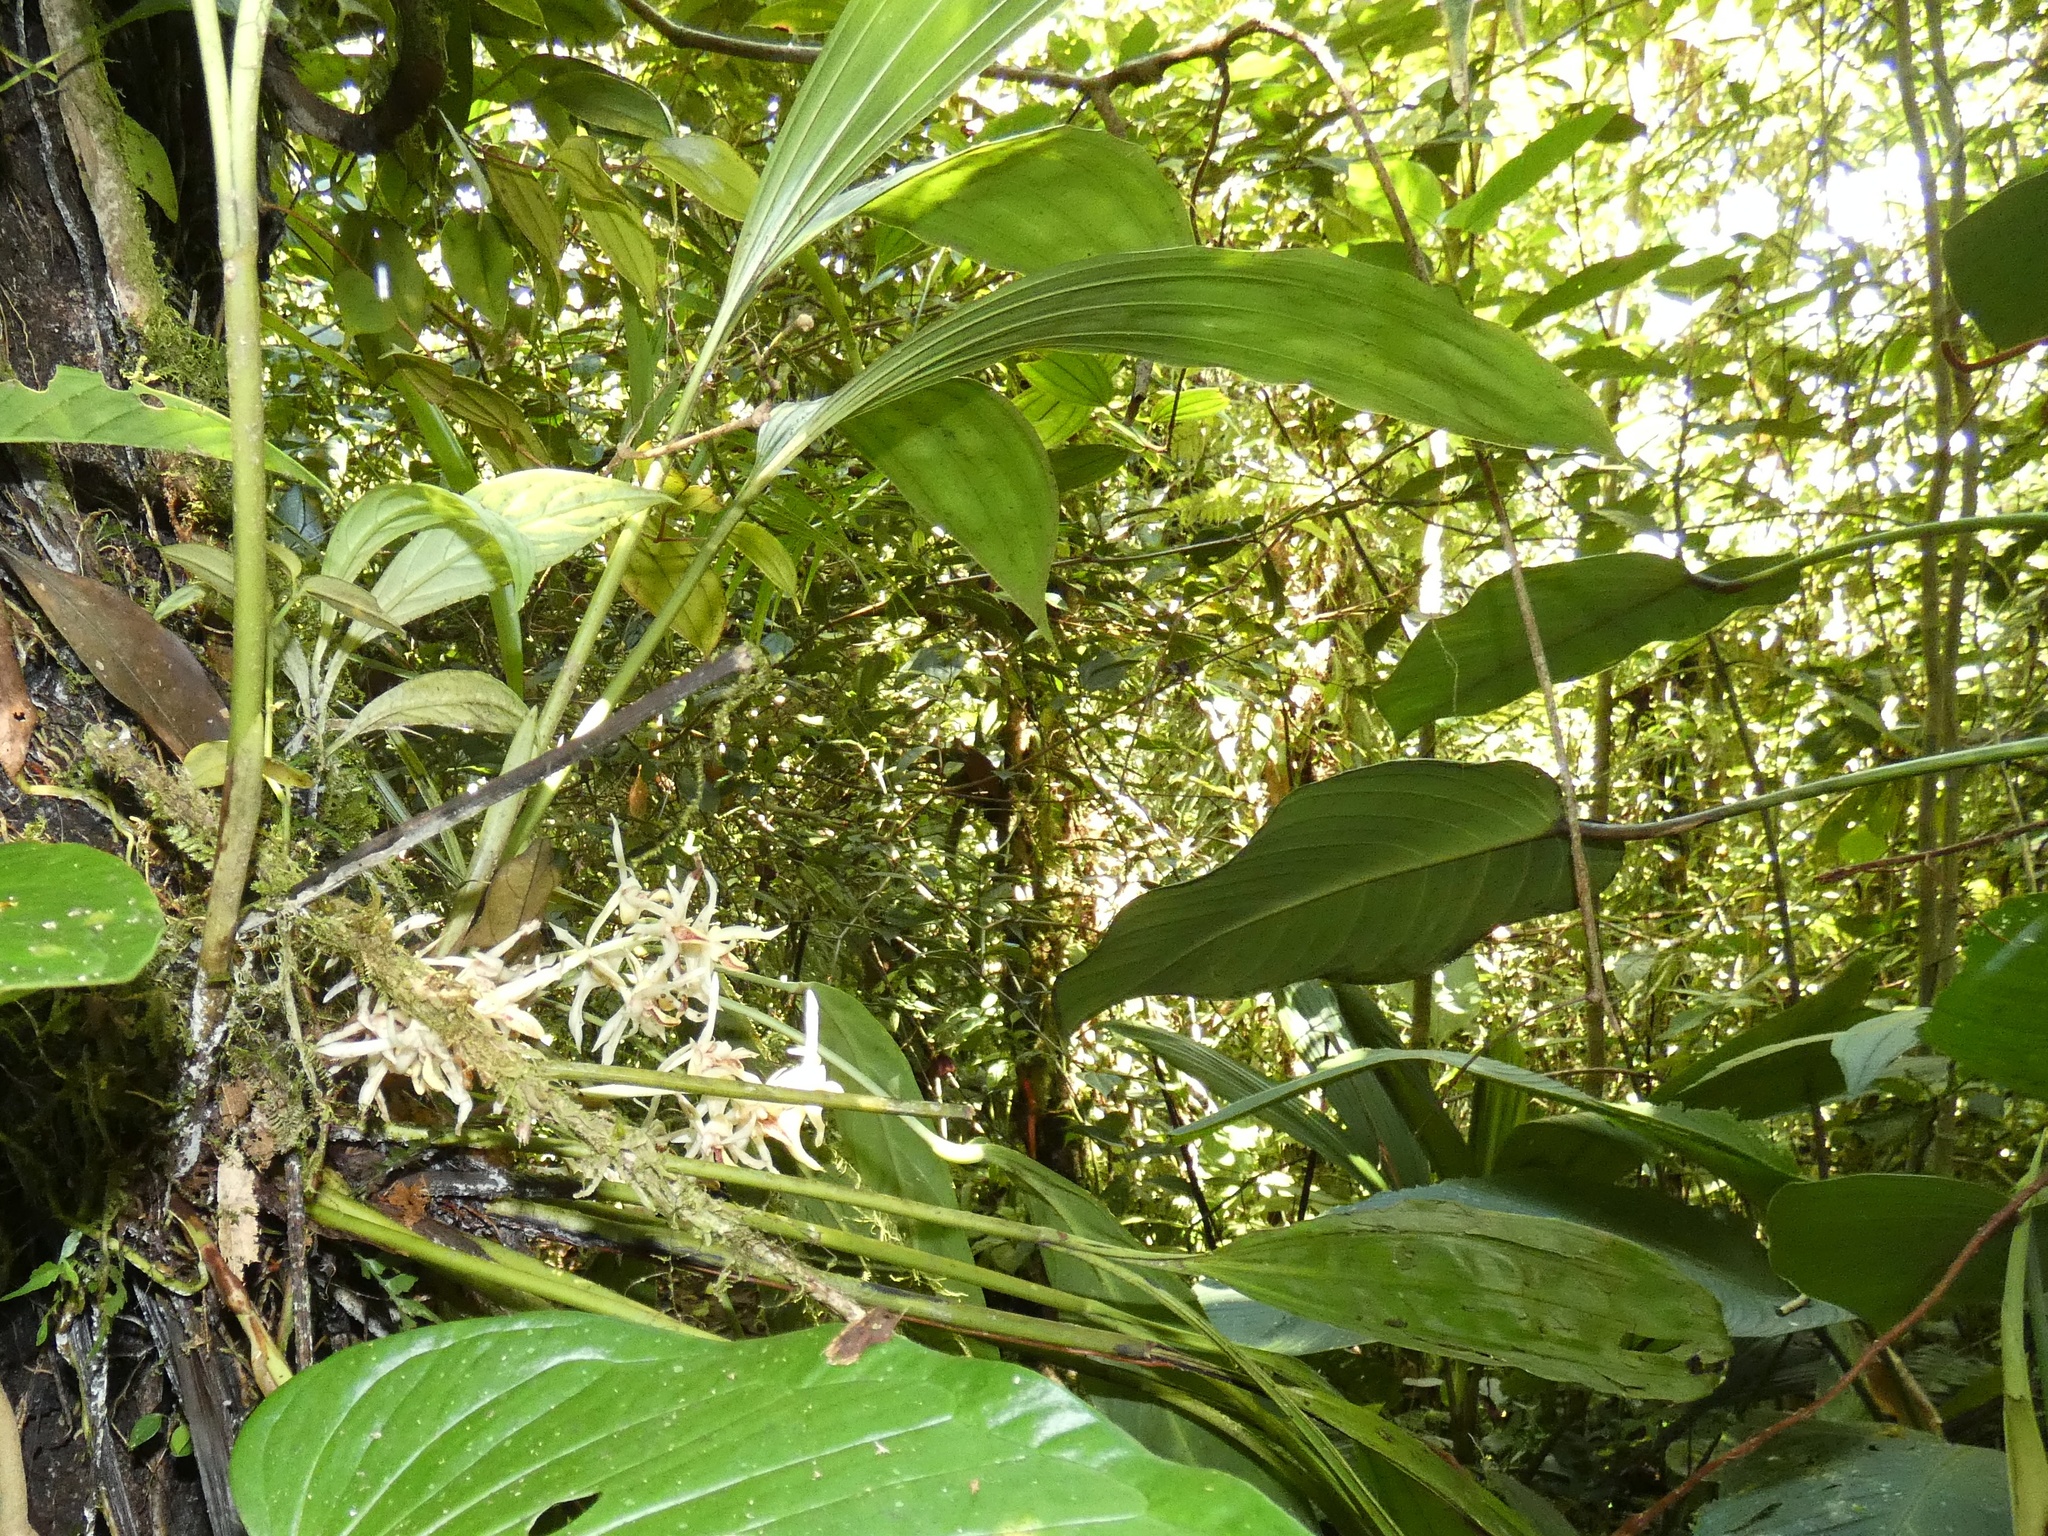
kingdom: Plantae
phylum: Tracheophyta
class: Liliopsida
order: Asparagales
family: Orchidaceae
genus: Xylobium
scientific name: Xylobium elongatum
